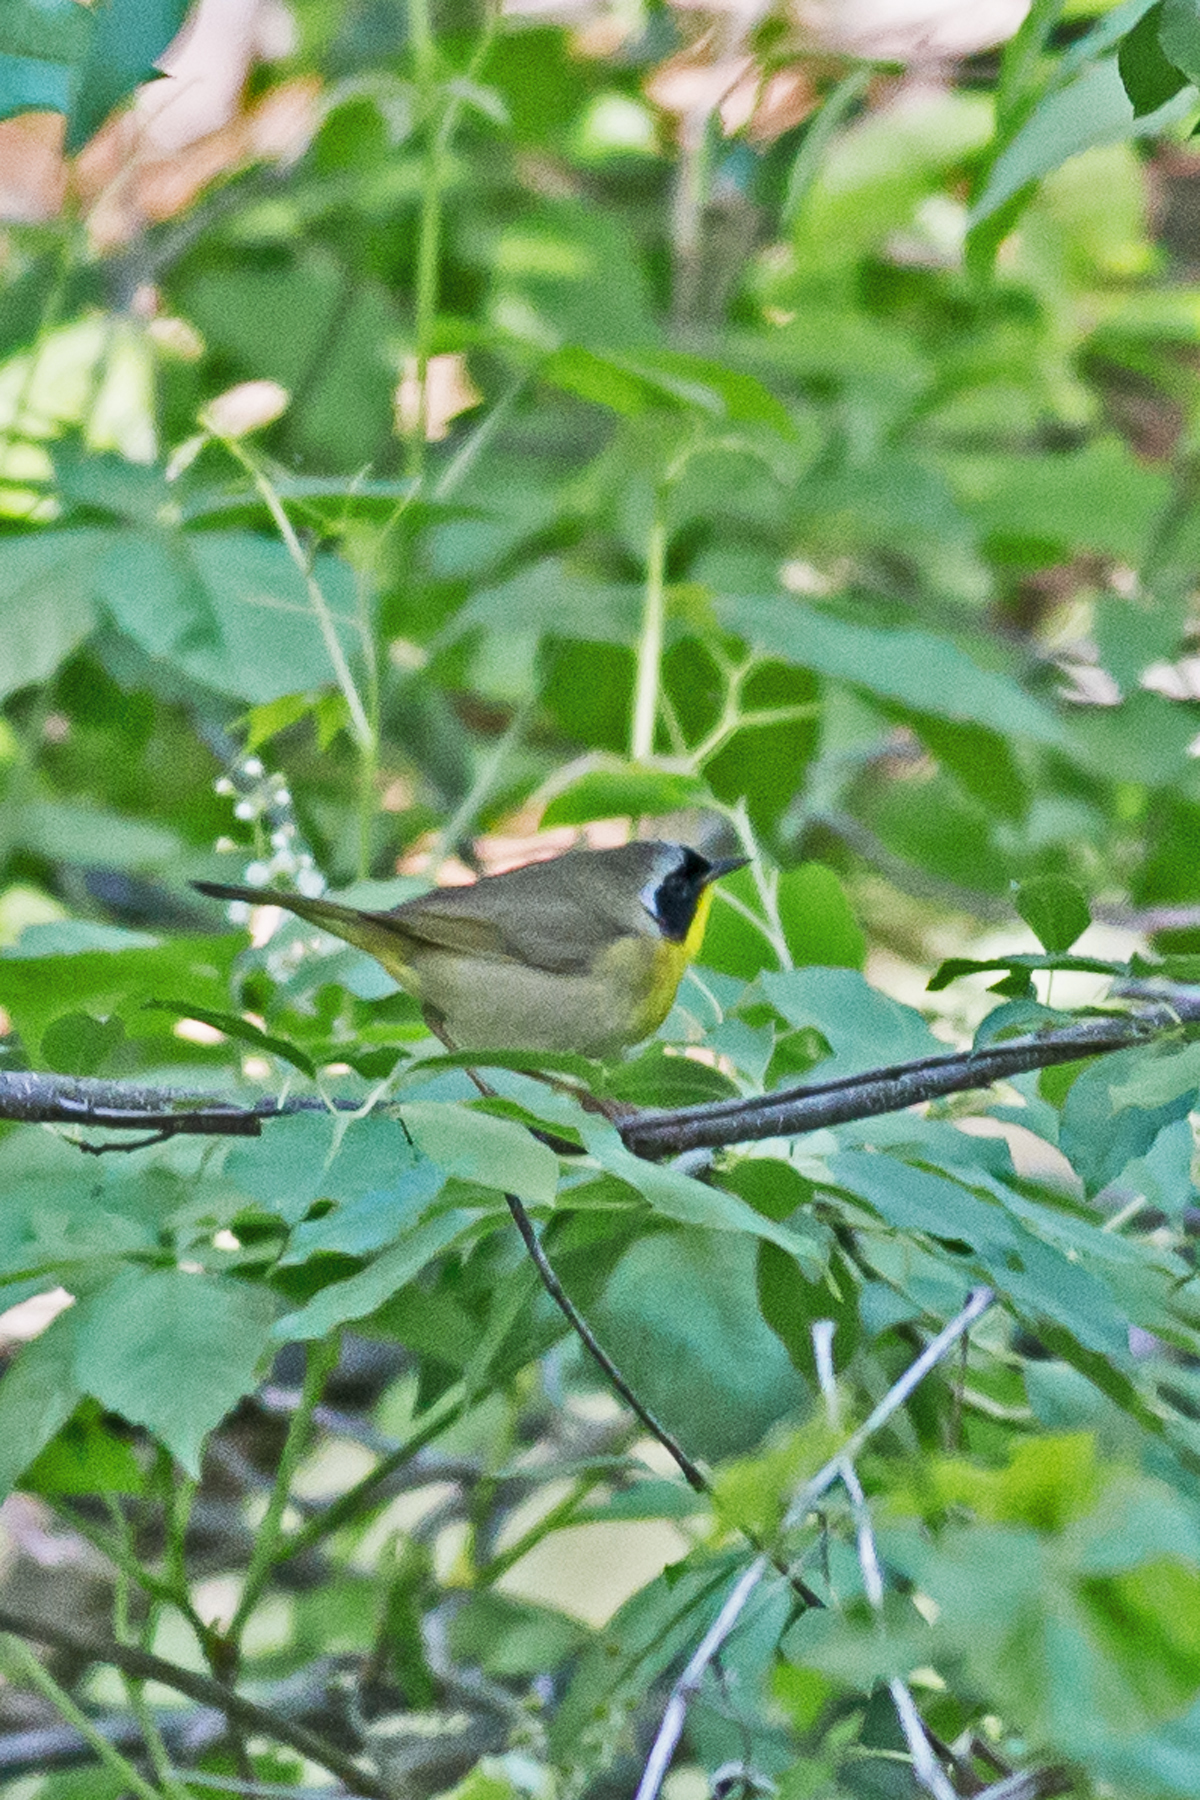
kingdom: Animalia
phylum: Chordata
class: Aves
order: Passeriformes
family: Parulidae
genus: Geothlypis
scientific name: Geothlypis trichas
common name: Common yellowthroat
